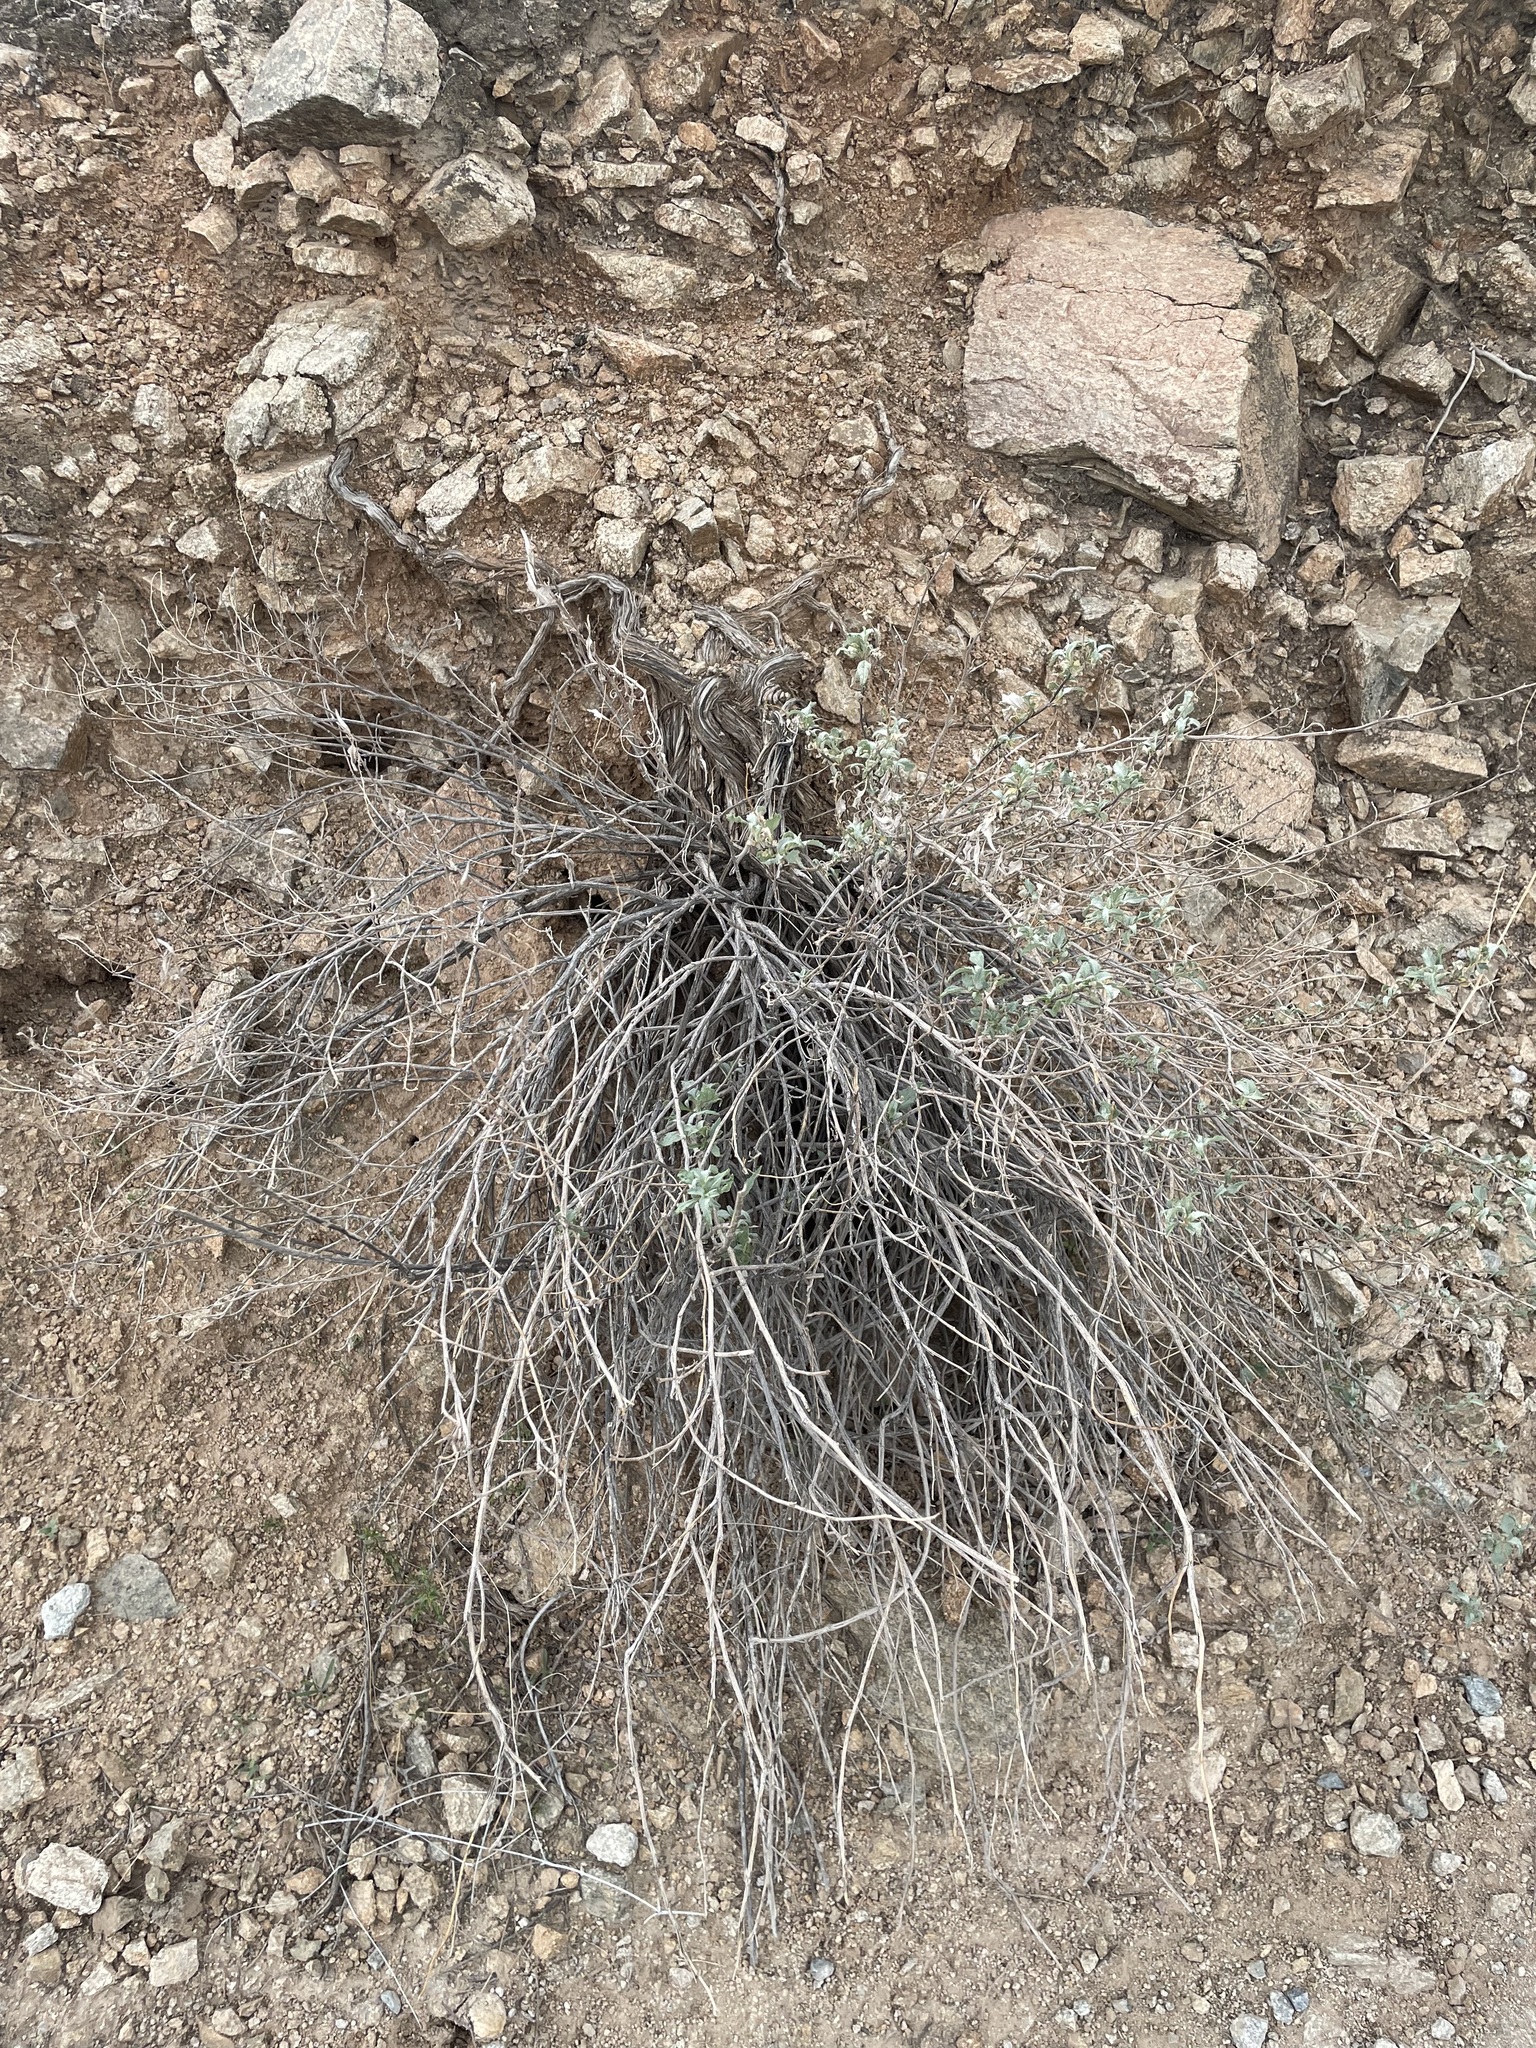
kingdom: Plantae
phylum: Tracheophyta
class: Magnoliopsida
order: Asterales
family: Asteraceae
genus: Ambrosia
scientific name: Ambrosia deltoidea
